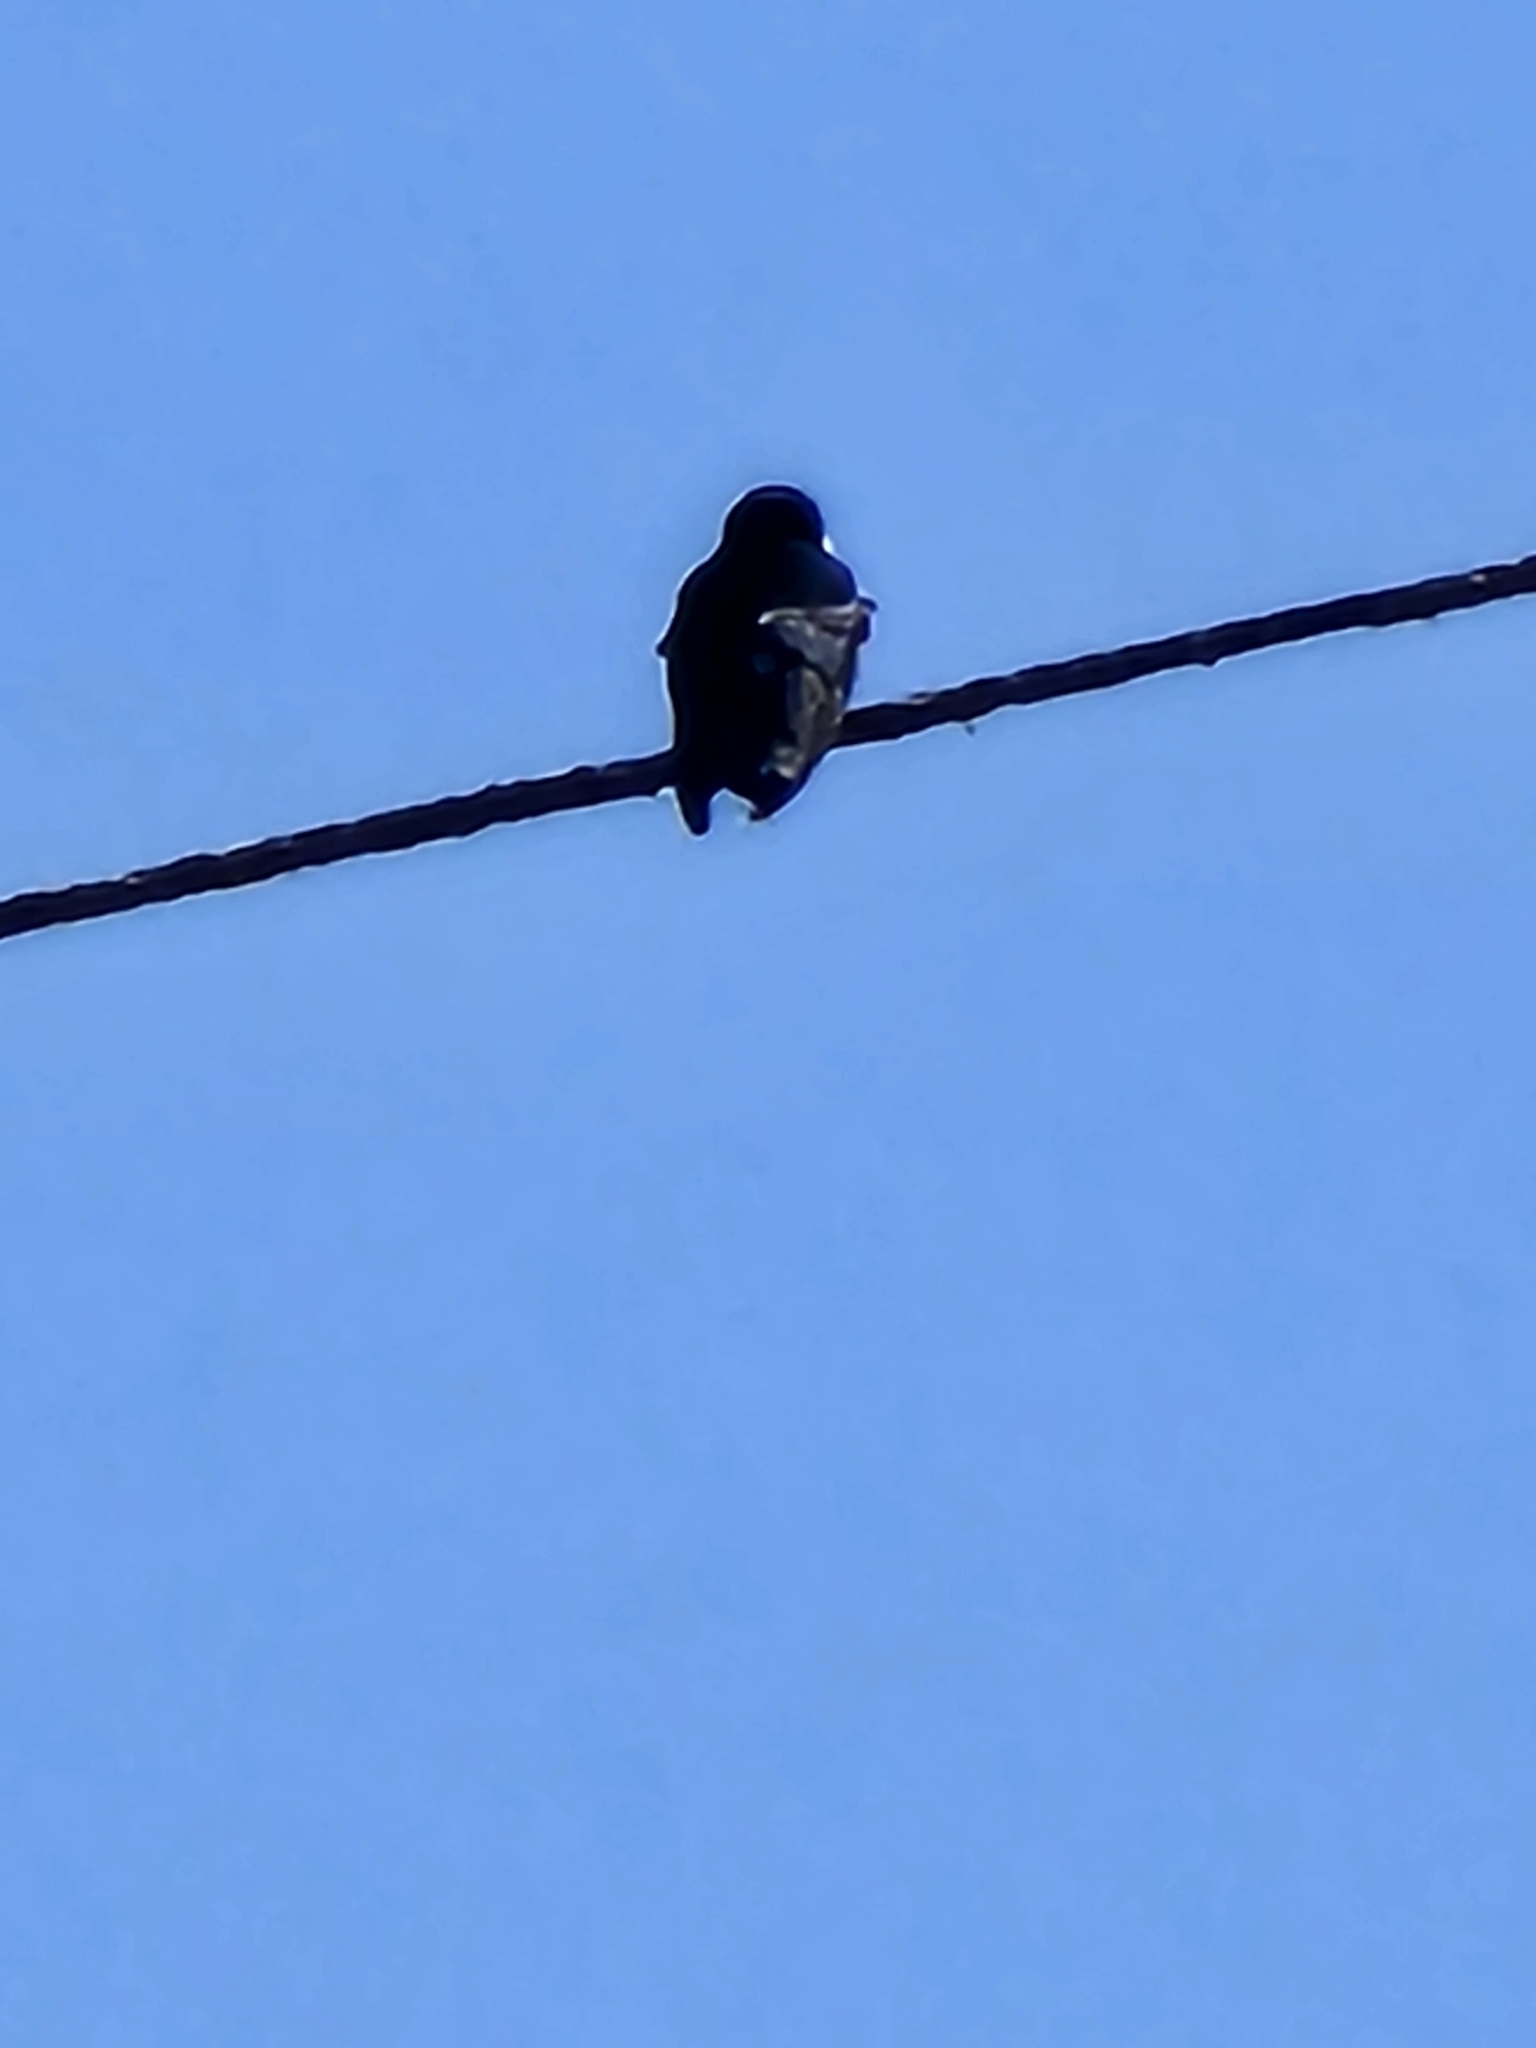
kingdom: Animalia
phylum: Chordata
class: Aves
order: Passeriformes
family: Hirundinidae
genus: Tachycineta
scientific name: Tachycineta thalassina
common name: Violet-green swallow
